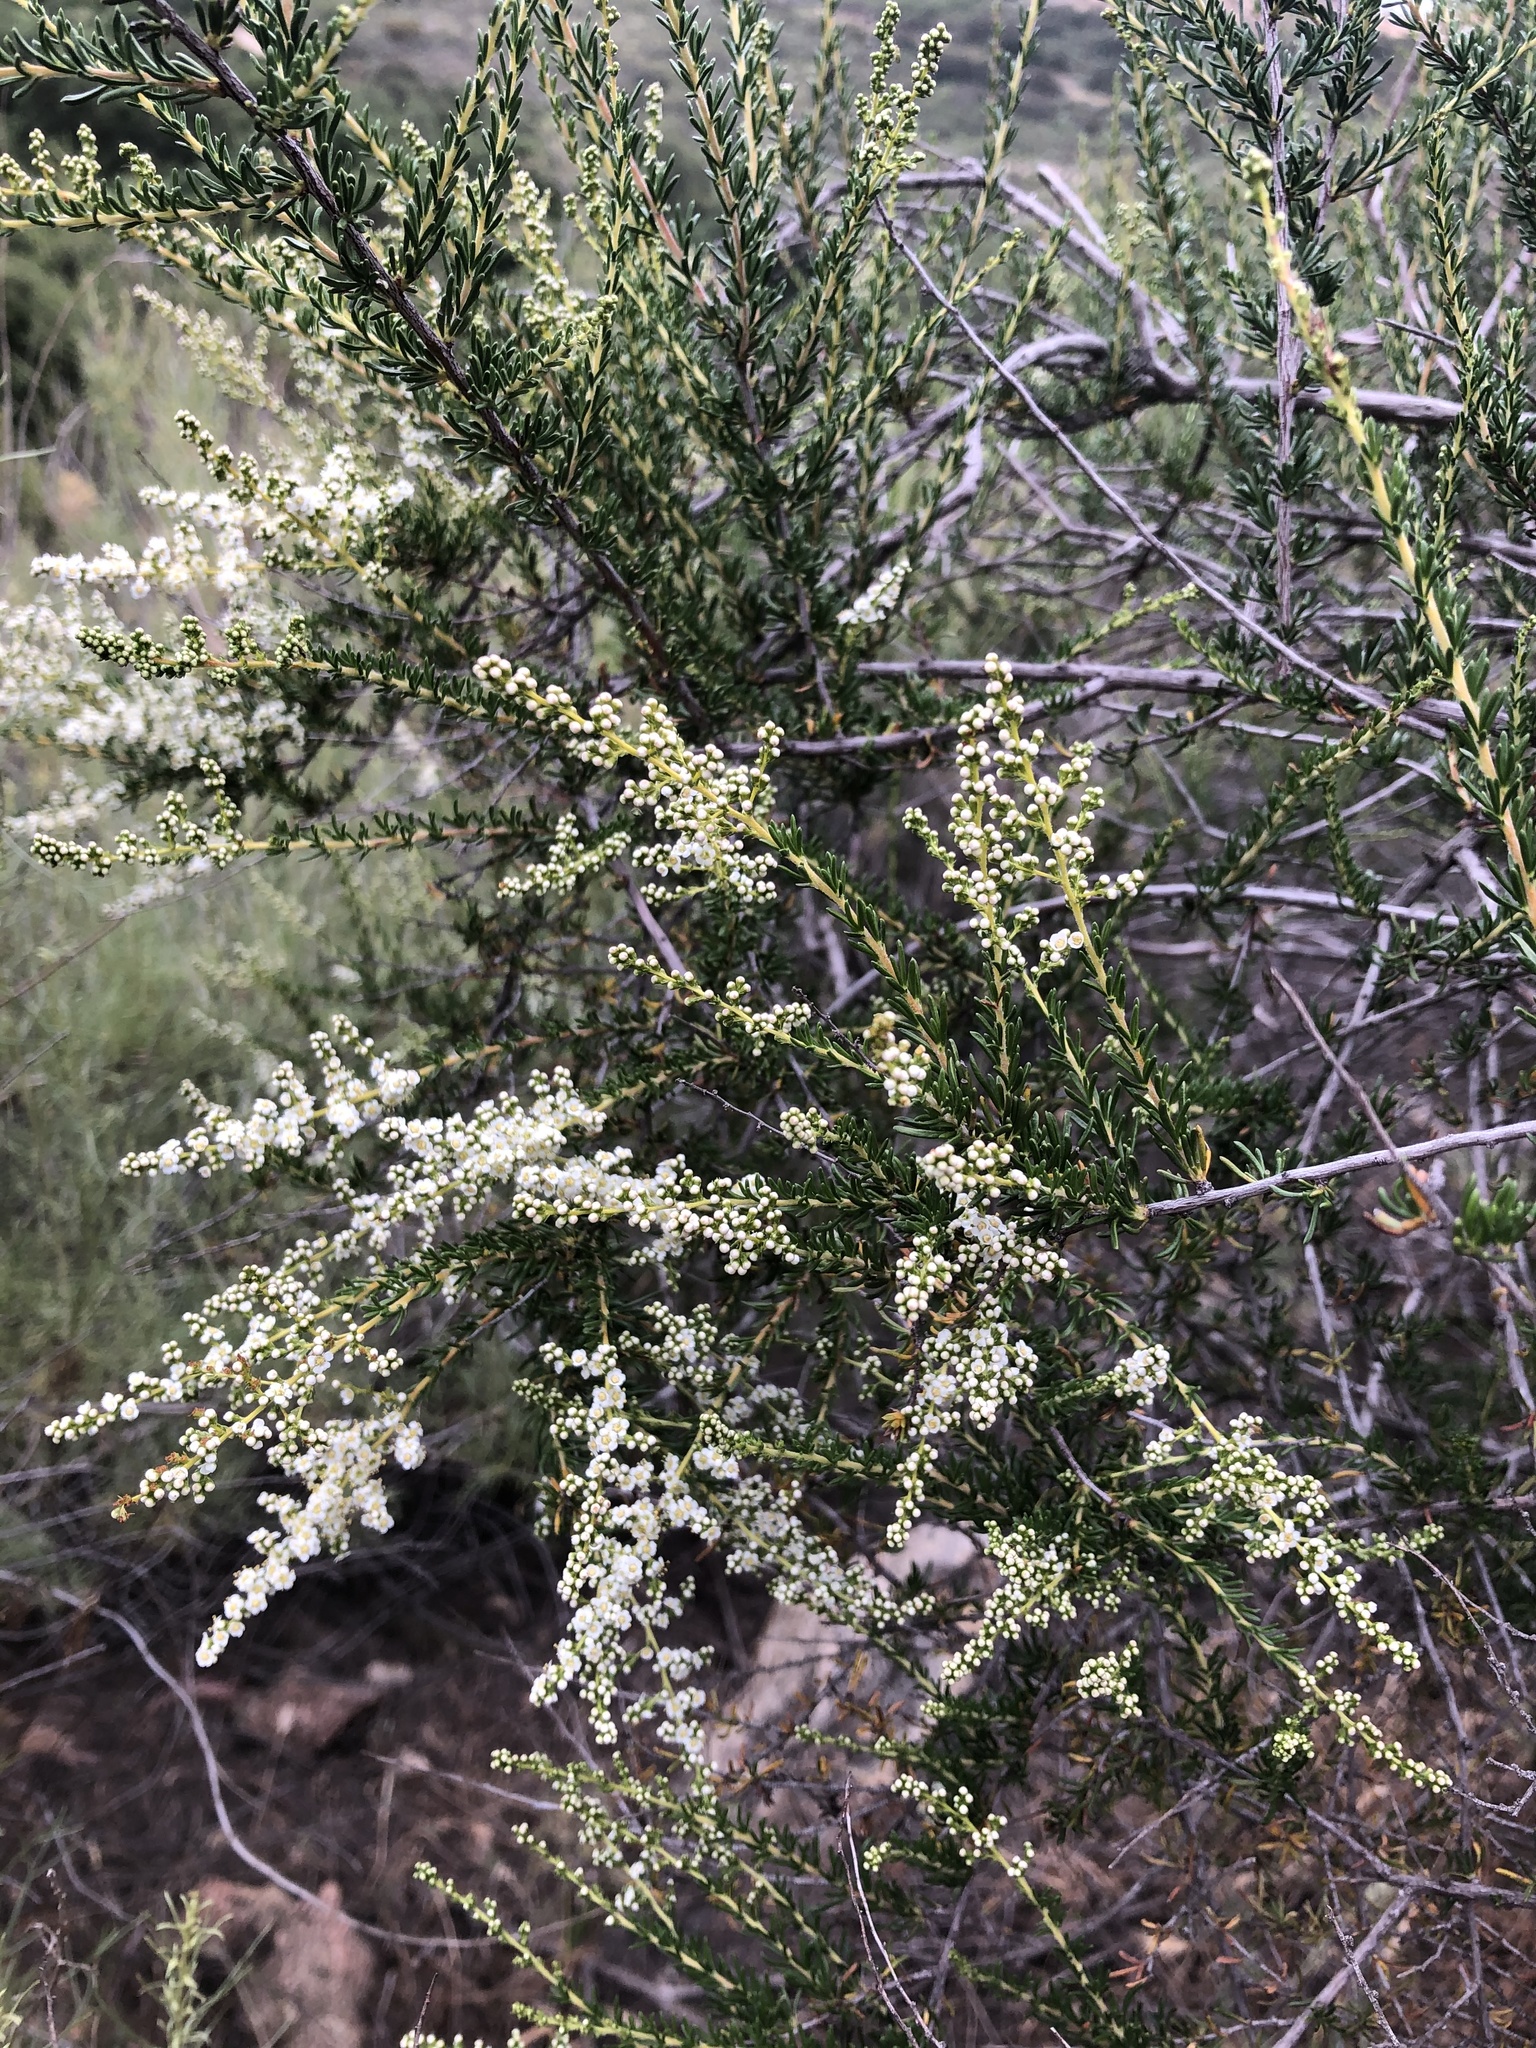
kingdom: Plantae
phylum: Tracheophyta
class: Magnoliopsida
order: Rosales
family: Rosaceae
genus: Adenostoma
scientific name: Adenostoma fasciculatum
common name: Chamise
